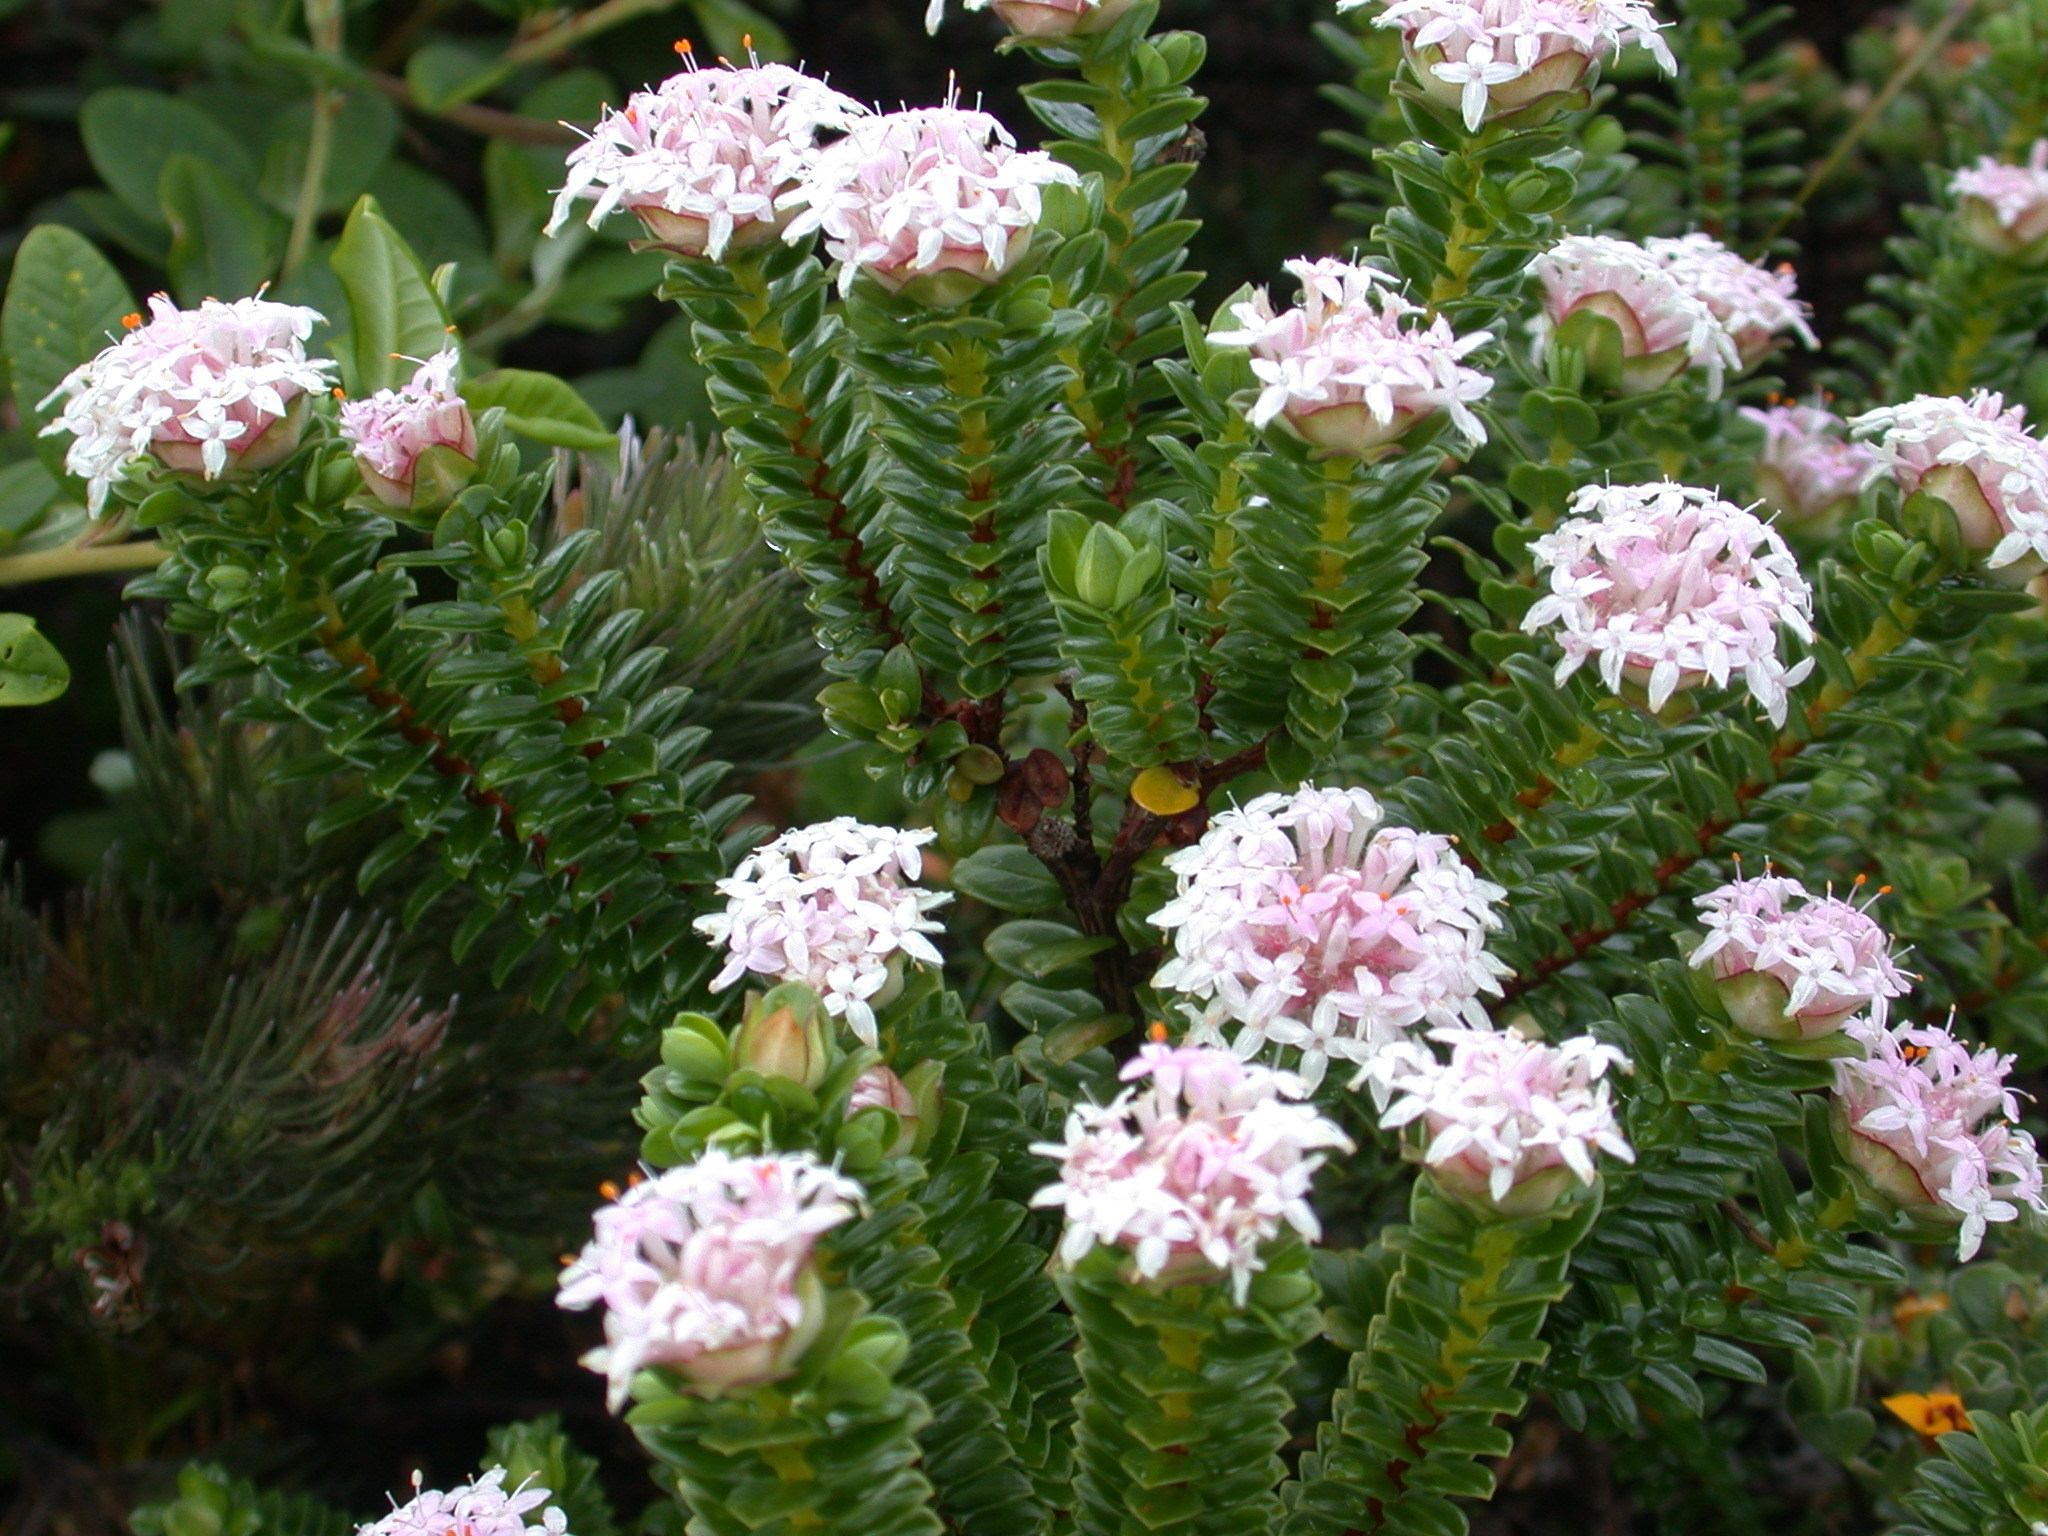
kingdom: Plantae
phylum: Tracheophyta
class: Magnoliopsida
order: Malvales
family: Thymelaeaceae
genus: Pimelea
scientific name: Pimelea ferruginea
